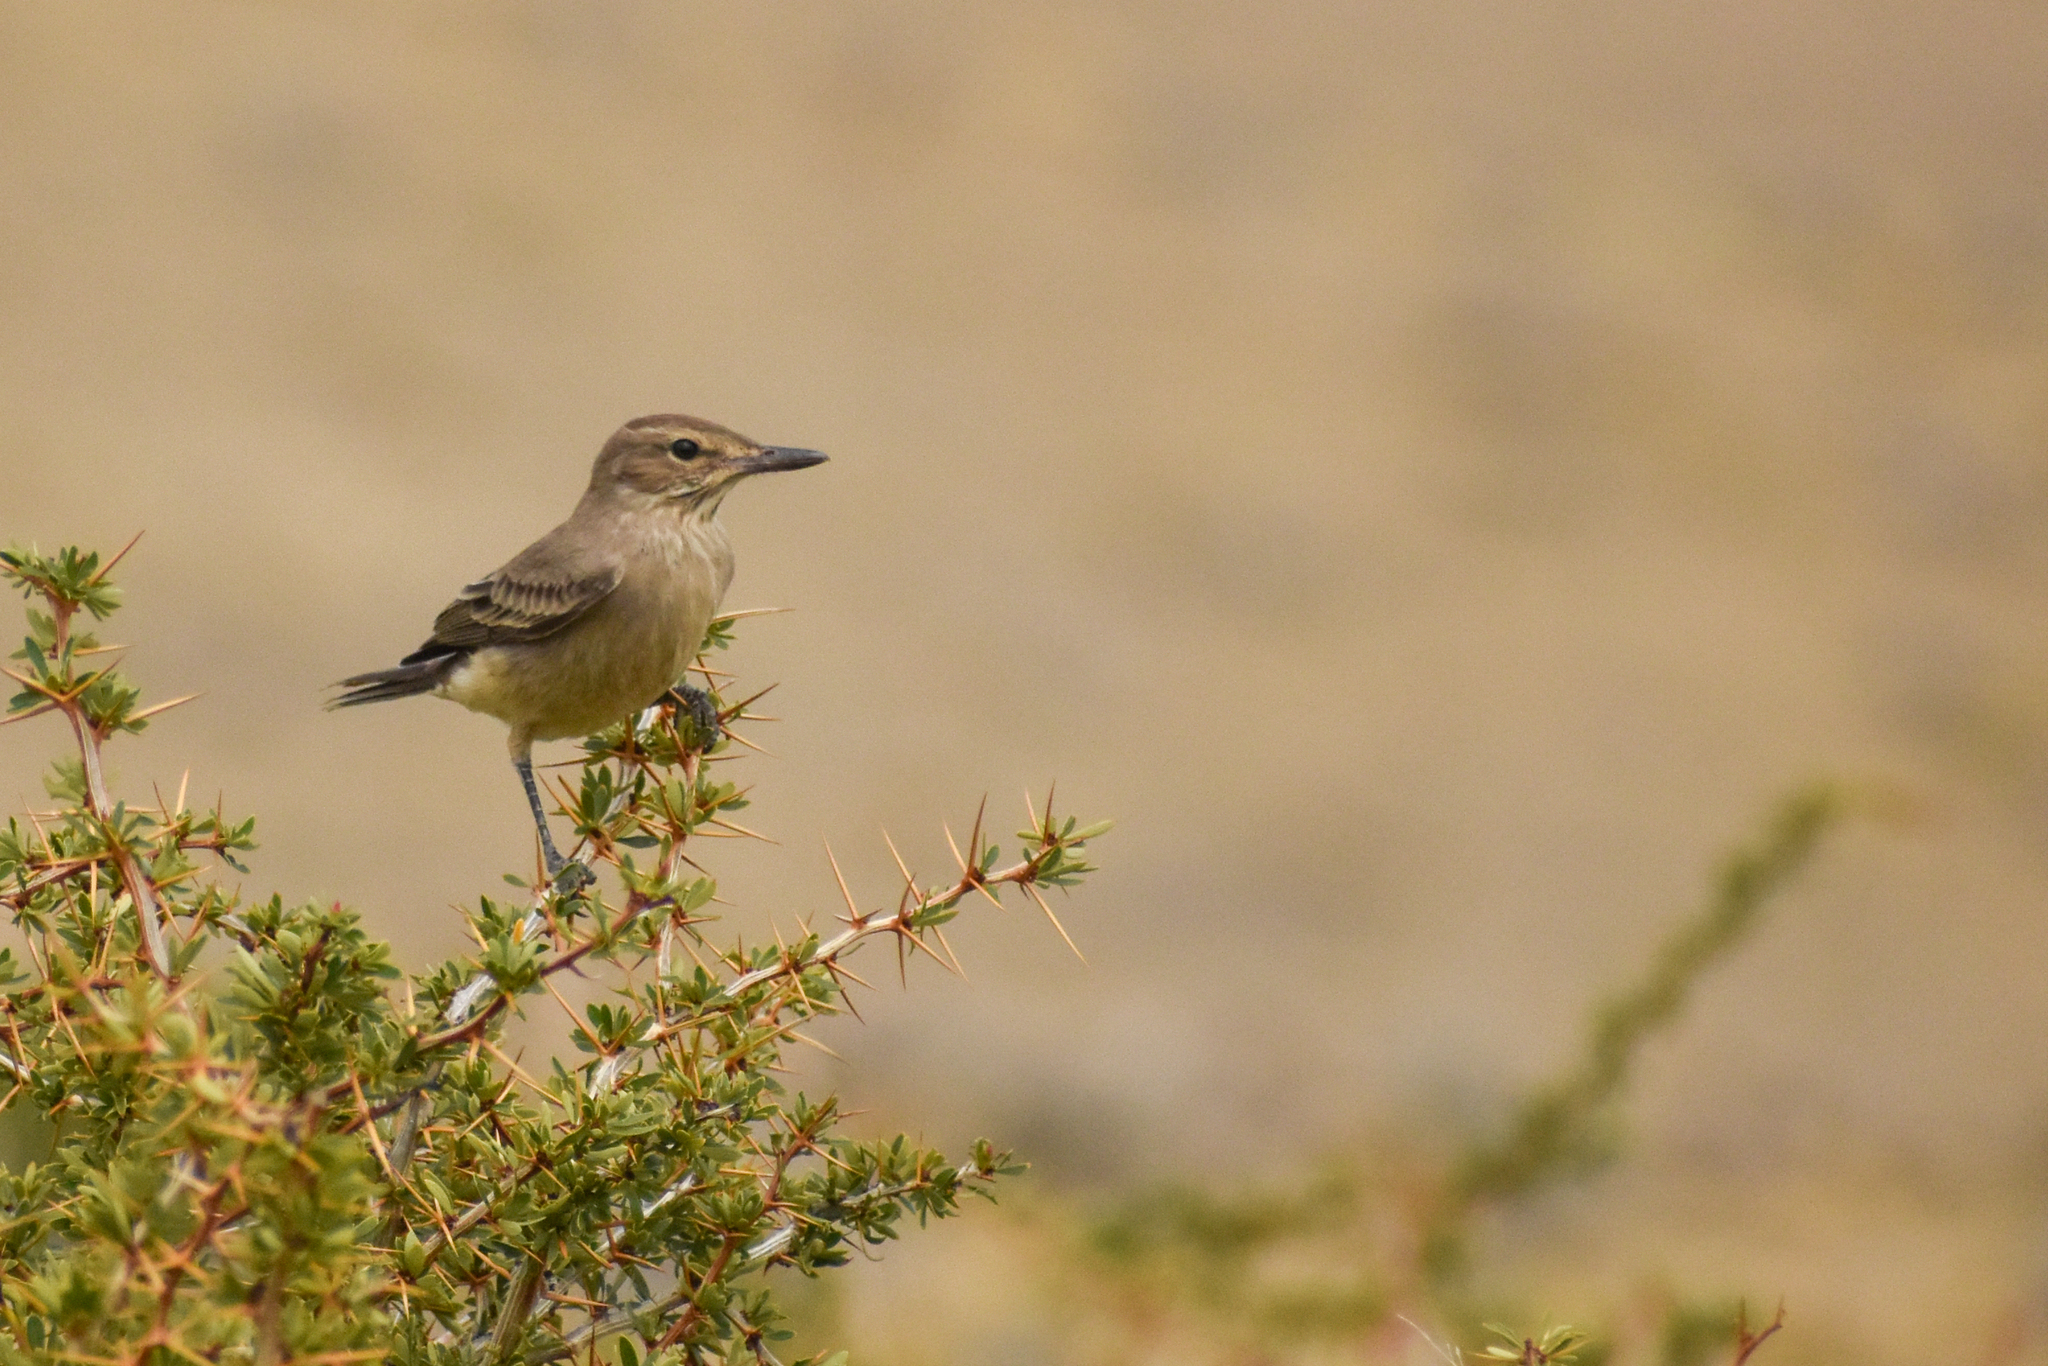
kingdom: Animalia
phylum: Chordata
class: Aves
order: Passeriformes
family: Tyrannidae
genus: Agriornis
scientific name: Agriornis micropterus
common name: Grey-bellied shrike-tyrant
